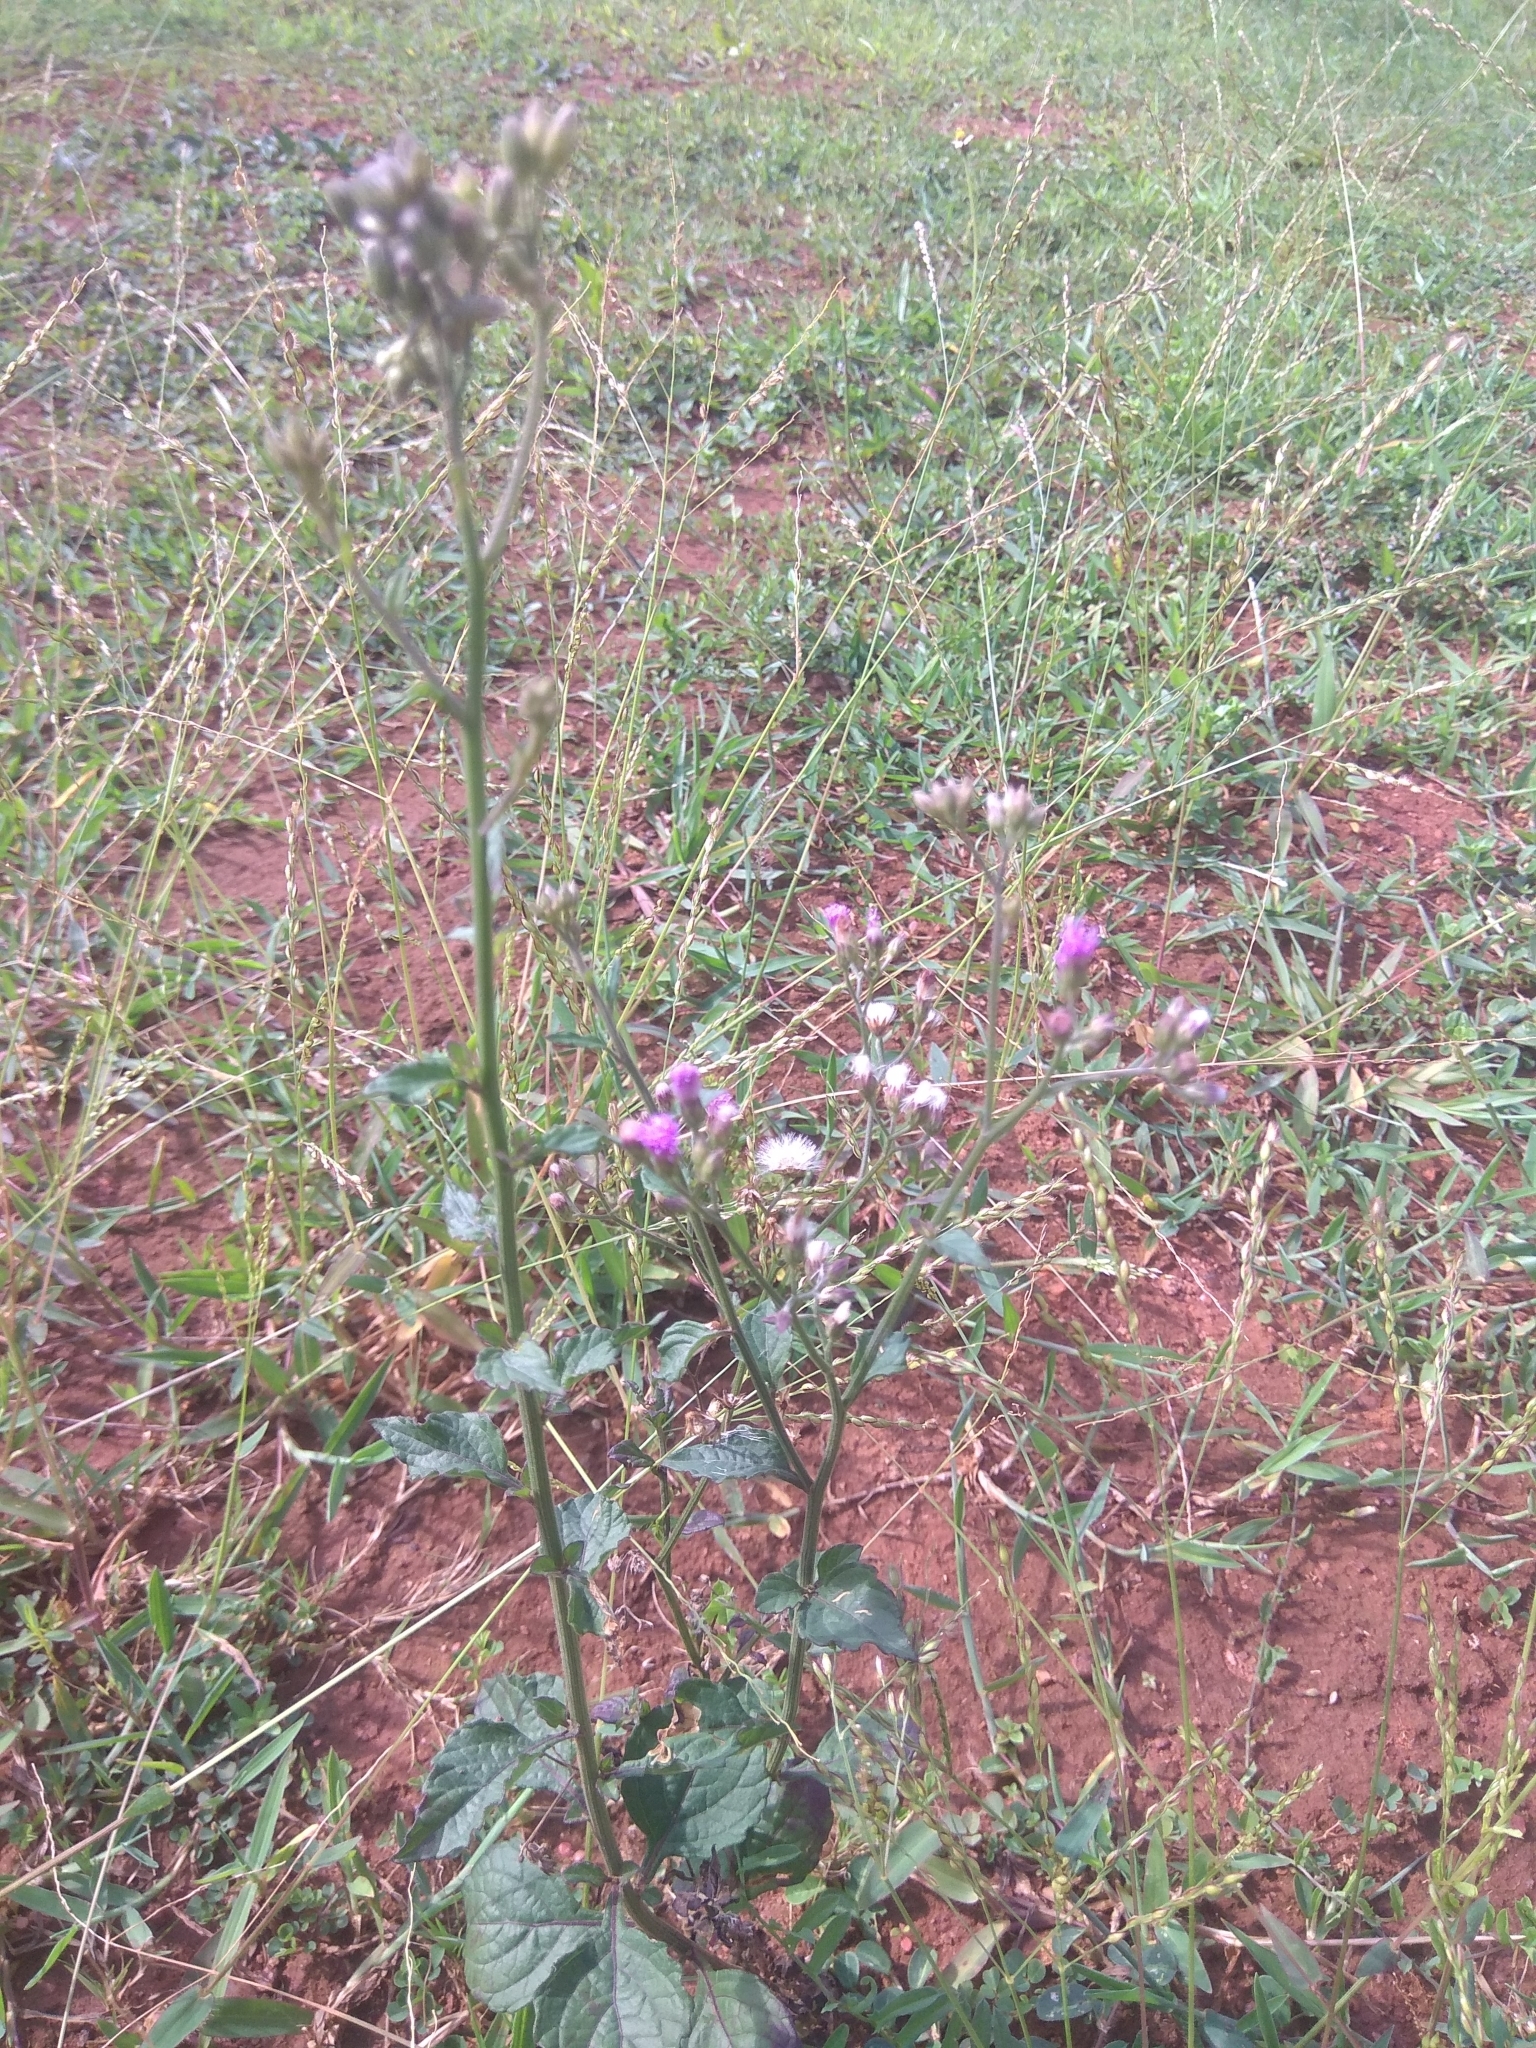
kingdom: Plantae
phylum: Tracheophyta
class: Magnoliopsida
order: Asterales
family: Asteraceae
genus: Cyanthillium
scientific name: Cyanthillium cinereum
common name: Little ironweed
